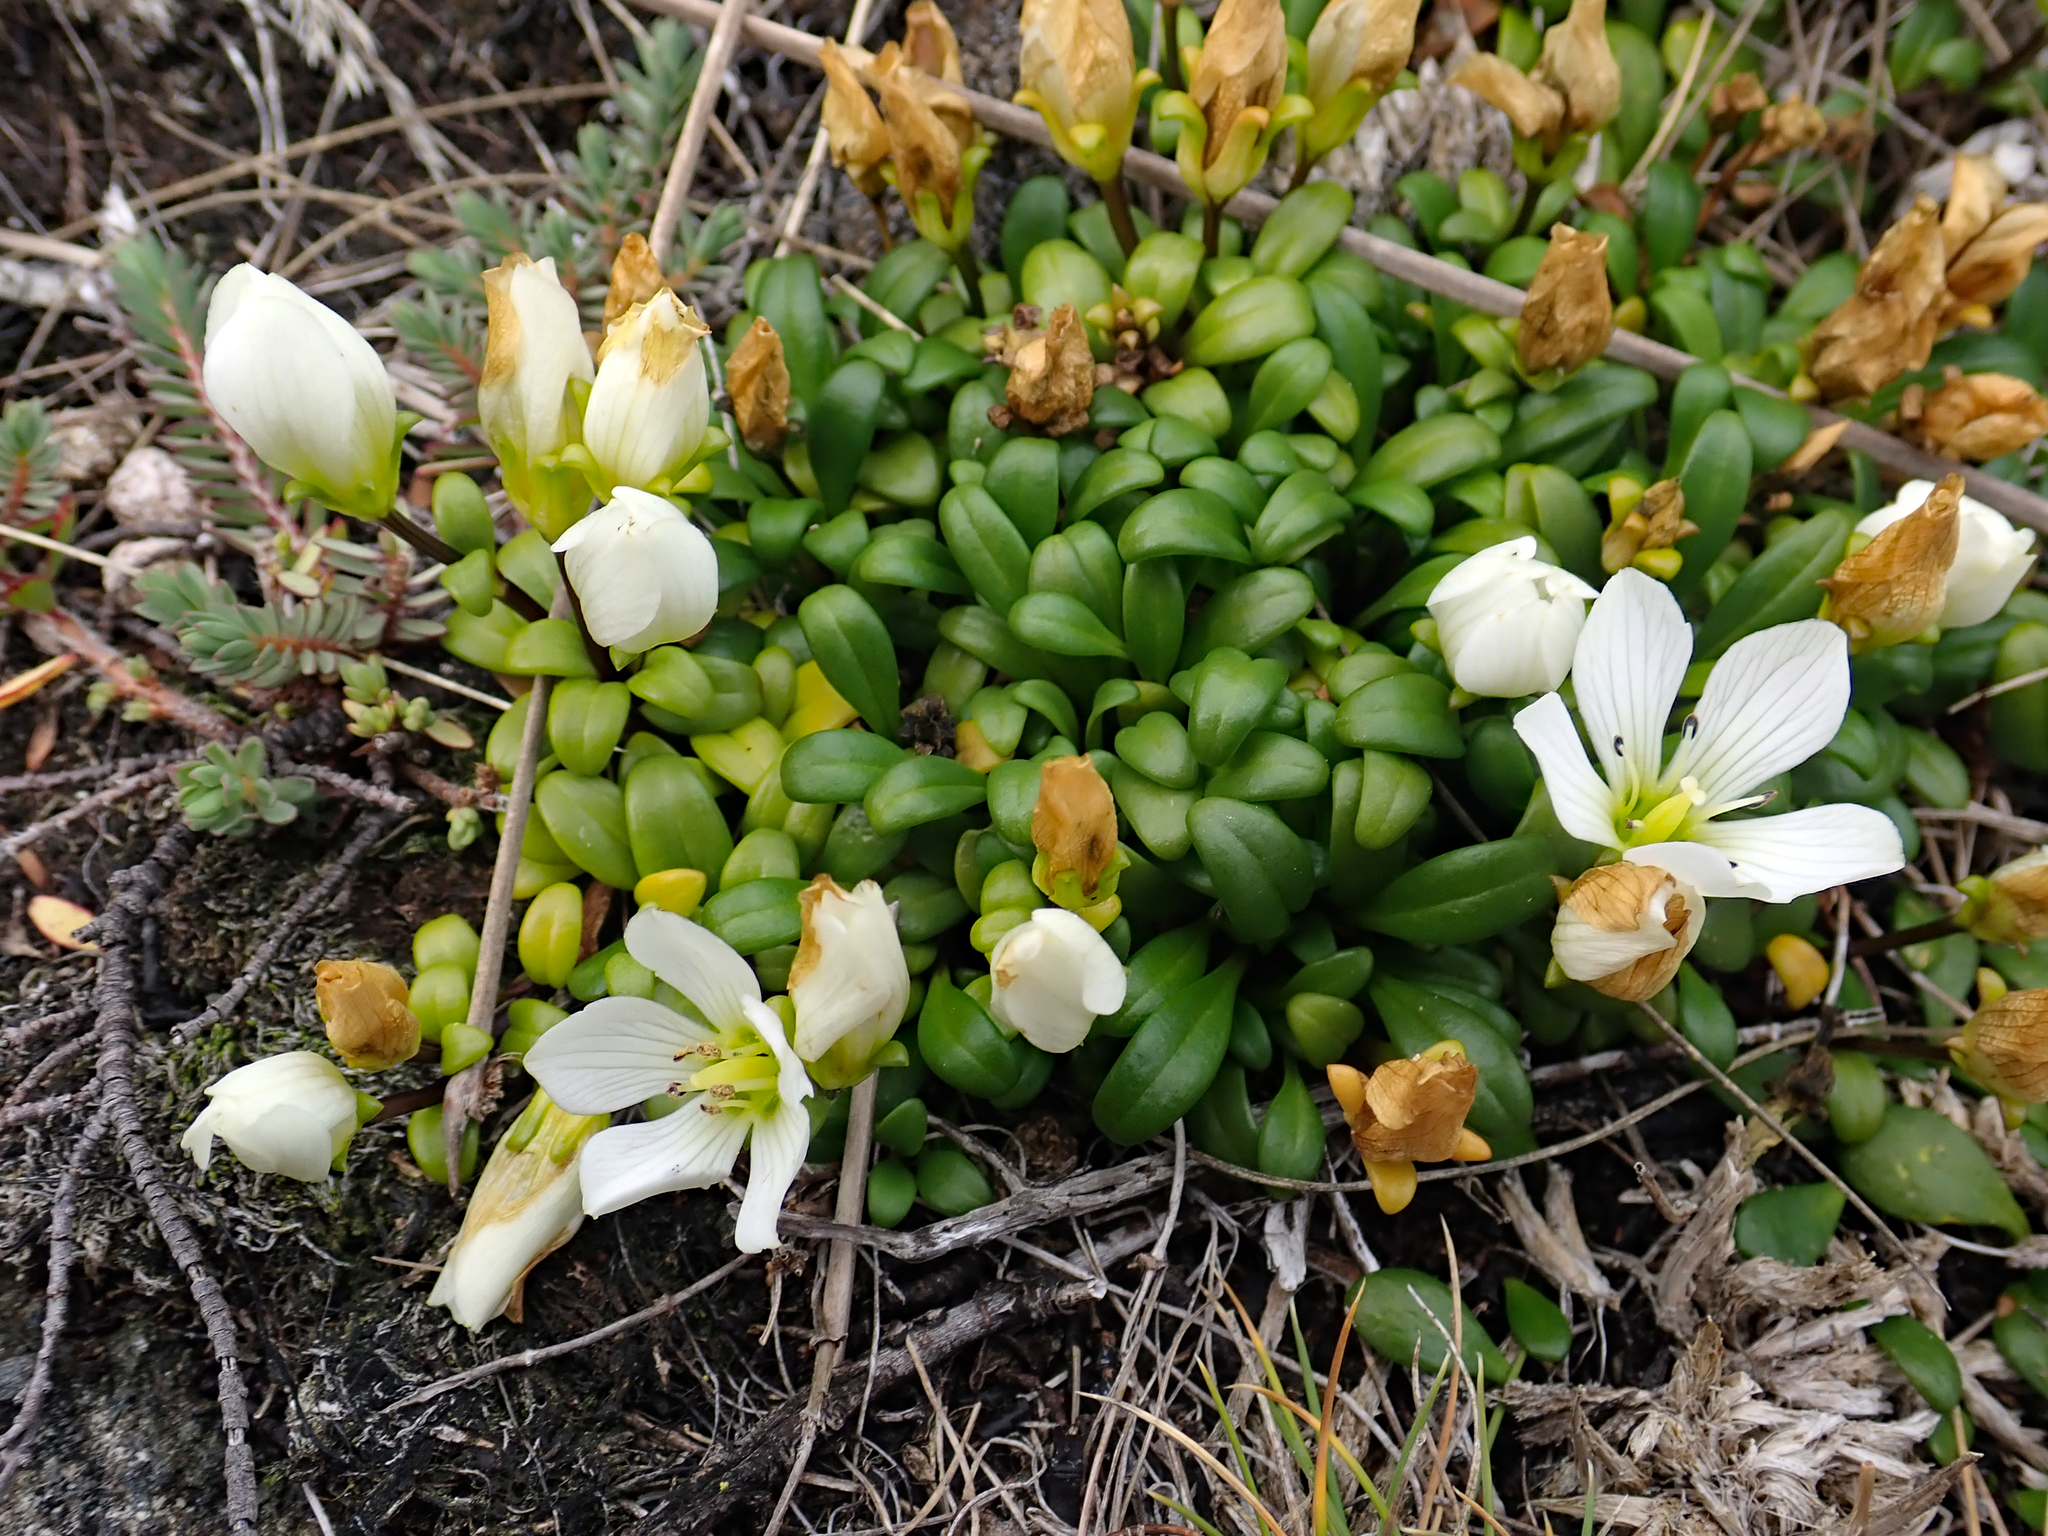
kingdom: Plantae
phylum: Tracheophyta
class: Magnoliopsida
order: Gentianales
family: Gentianaceae
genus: Gentianella
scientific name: Gentianella saxosa
